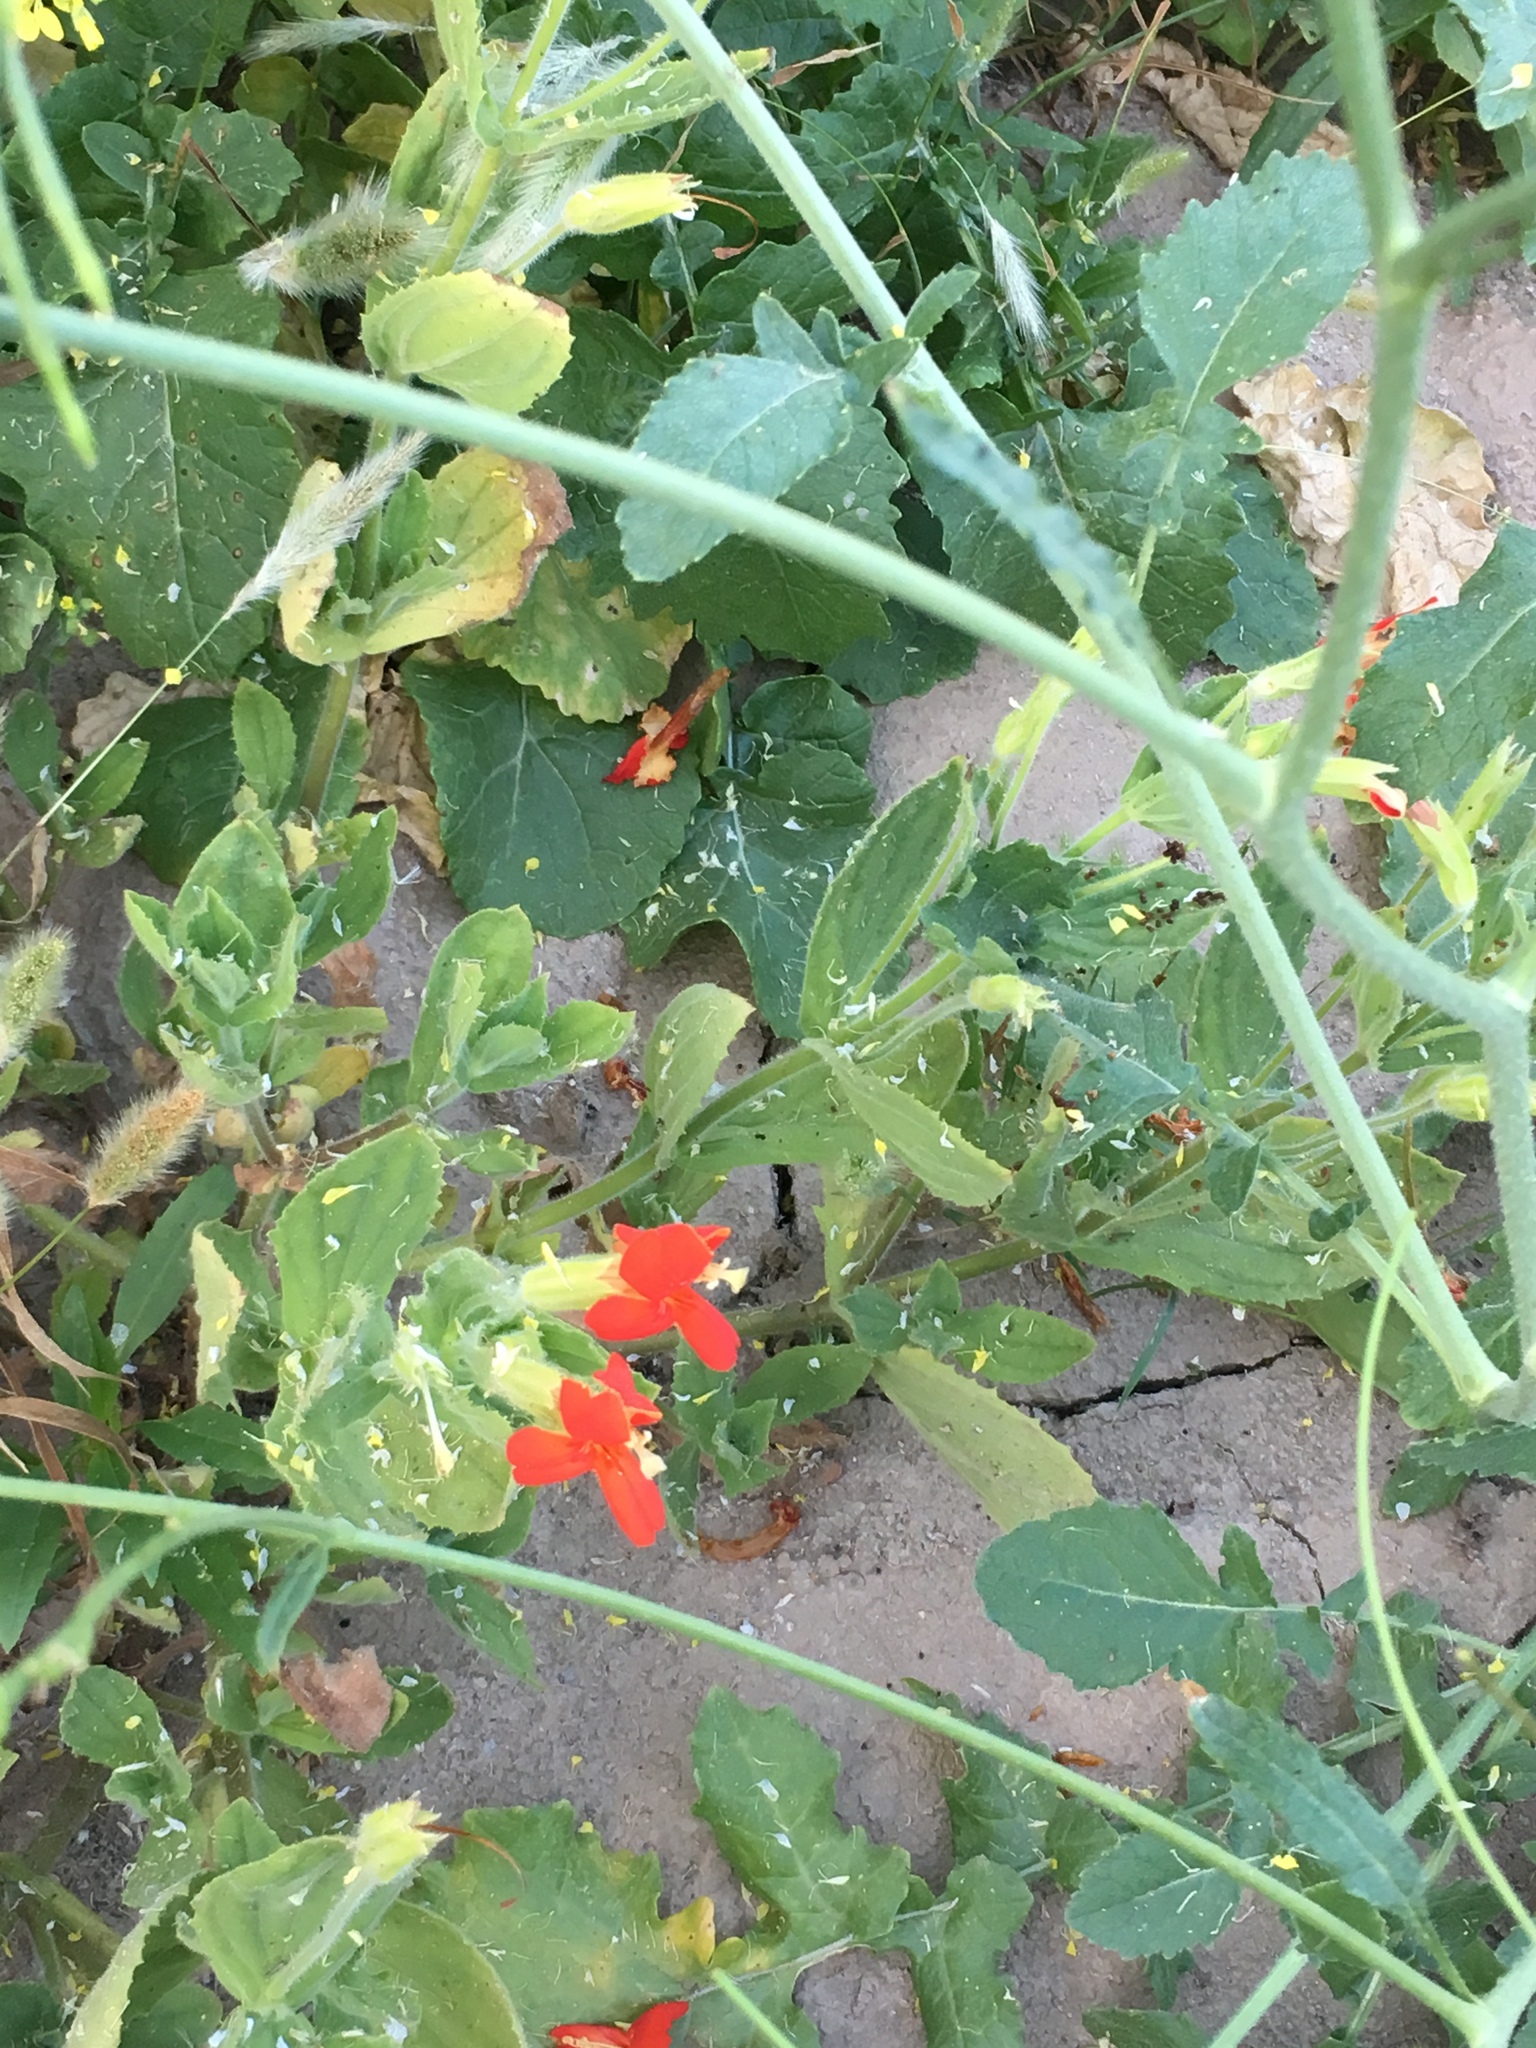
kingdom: Plantae
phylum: Tracheophyta
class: Magnoliopsida
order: Lamiales
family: Phrymaceae
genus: Erythranthe
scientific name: Erythranthe cardinalis
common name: Scarlet monkey-flower
